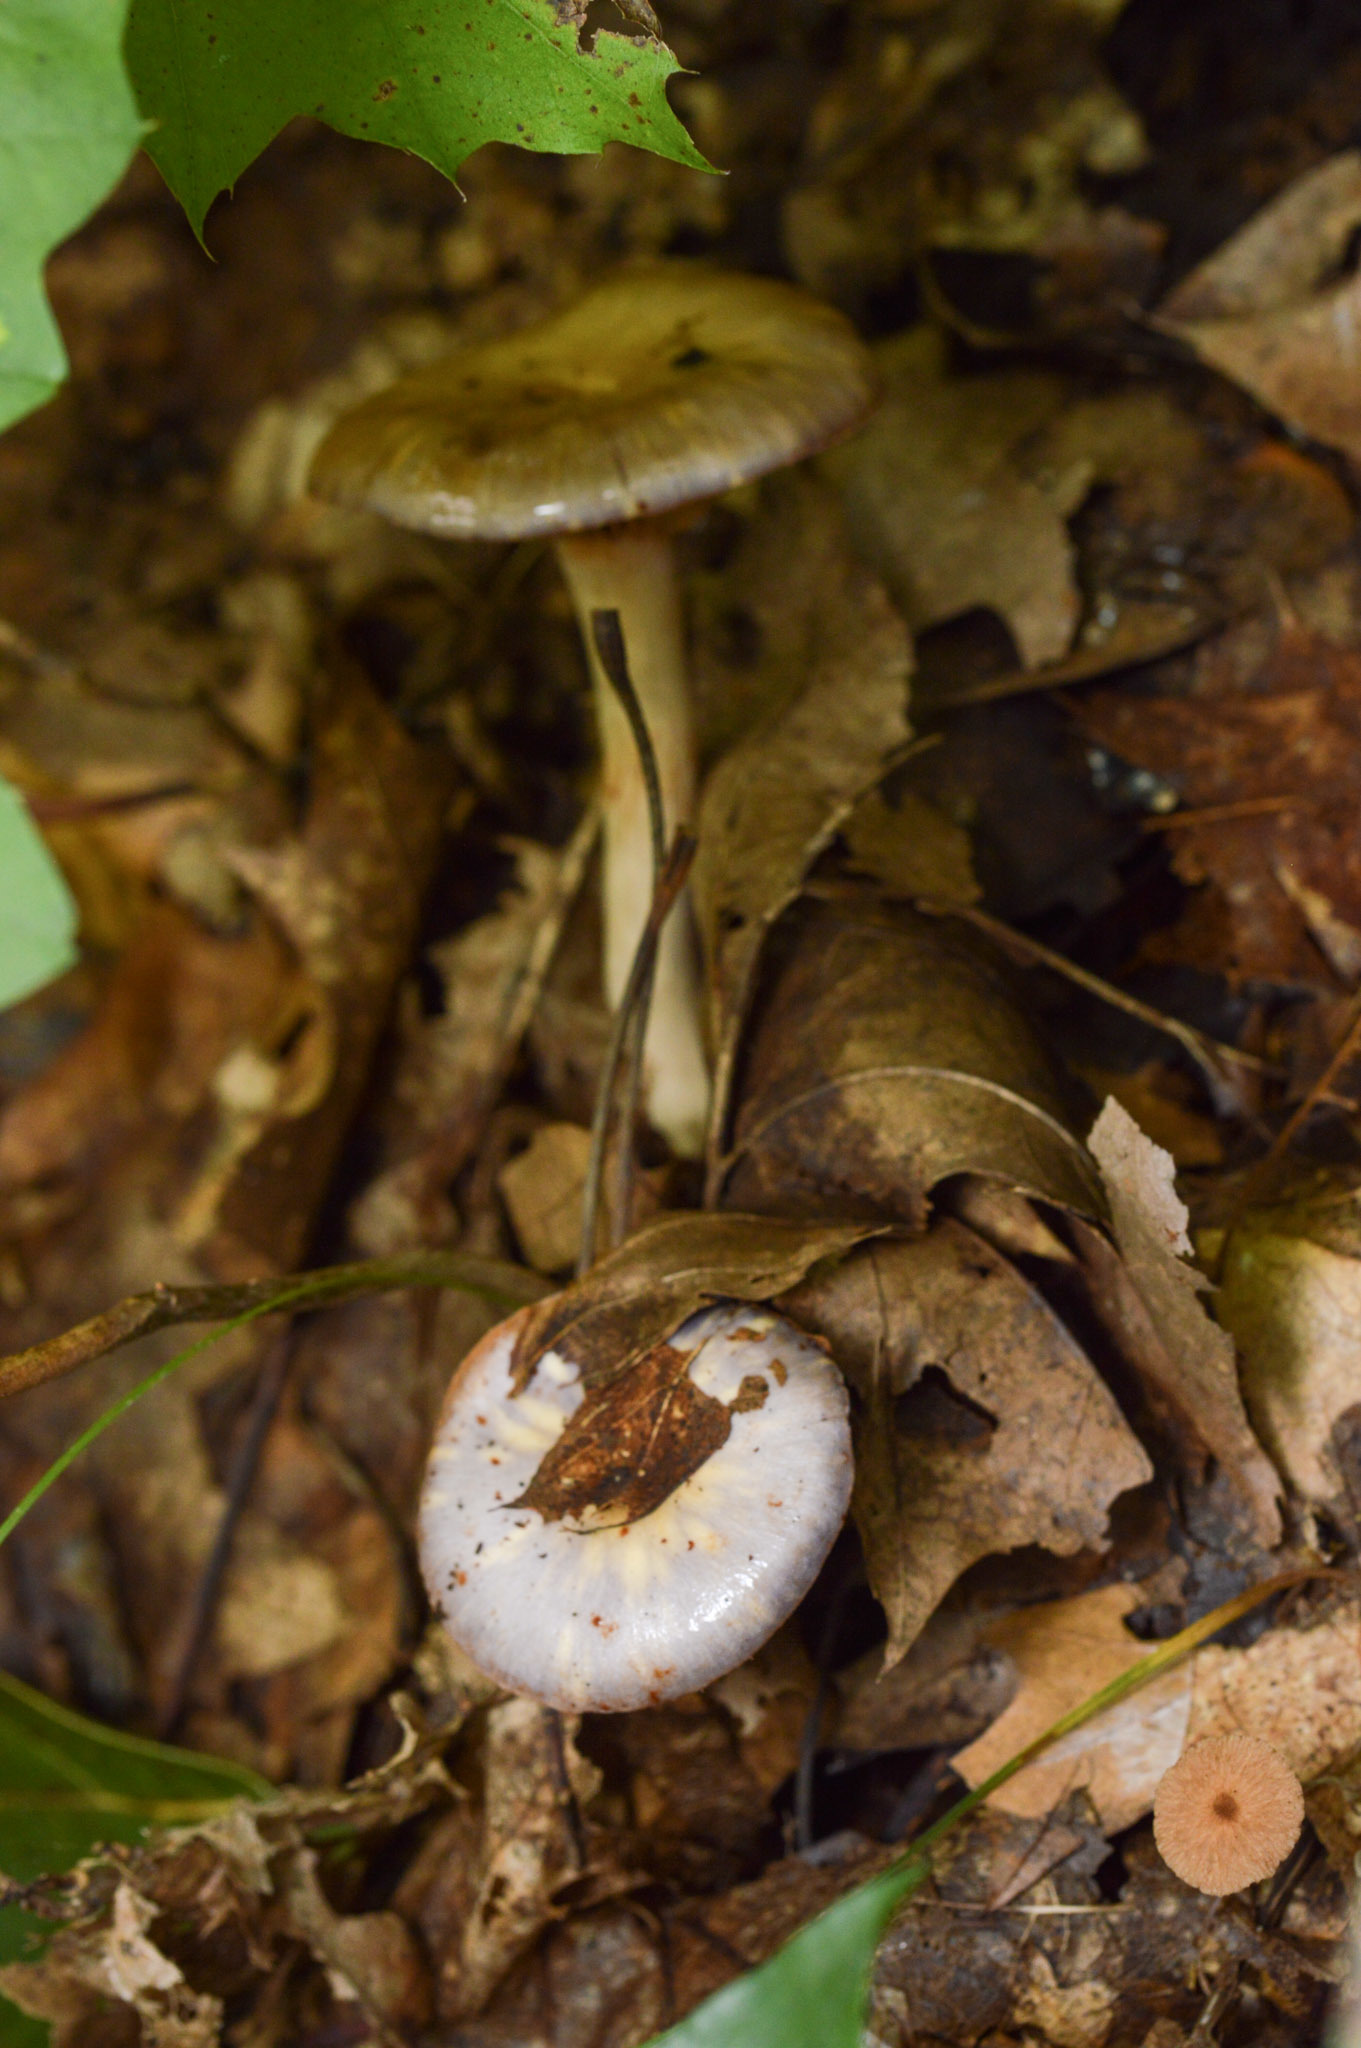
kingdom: Fungi
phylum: Basidiomycota
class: Agaricomycetes
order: Agaricales
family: Cortinariaceae
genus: Cortinarius
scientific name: Cortinarius iodes
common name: Viscid violet cort
